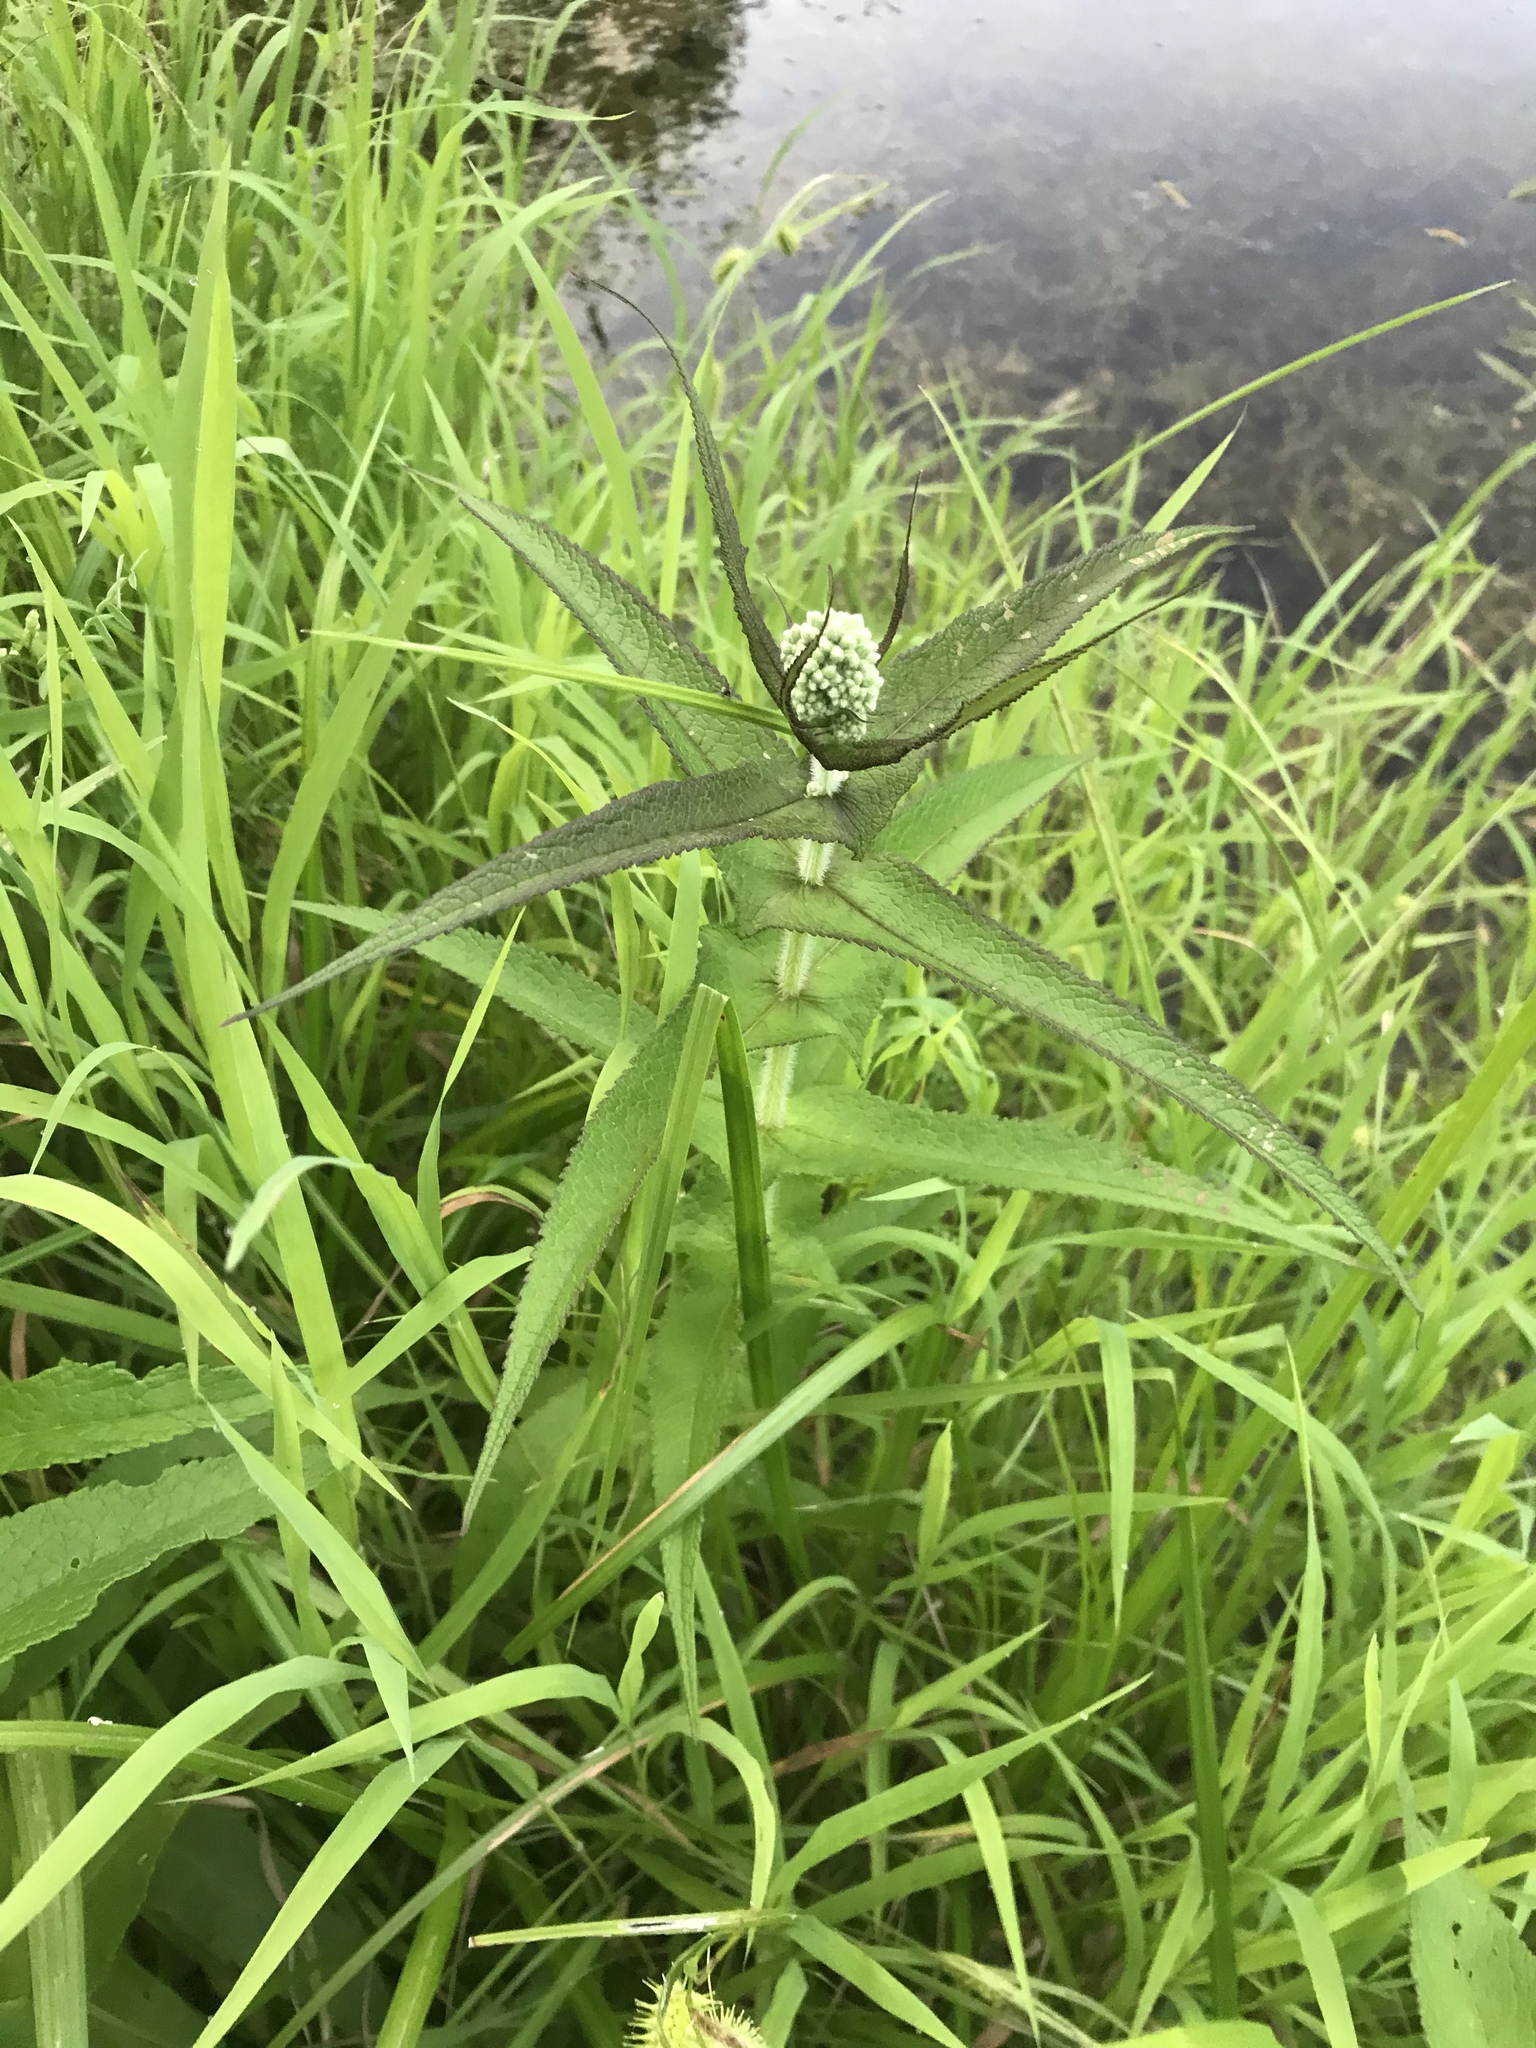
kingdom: Plantae
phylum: Tracheophyta
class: Magnoliopsida
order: Asterales
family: Asteraceae
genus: Eupatorium
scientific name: Eupatorium perfoliatum
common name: Boneset
